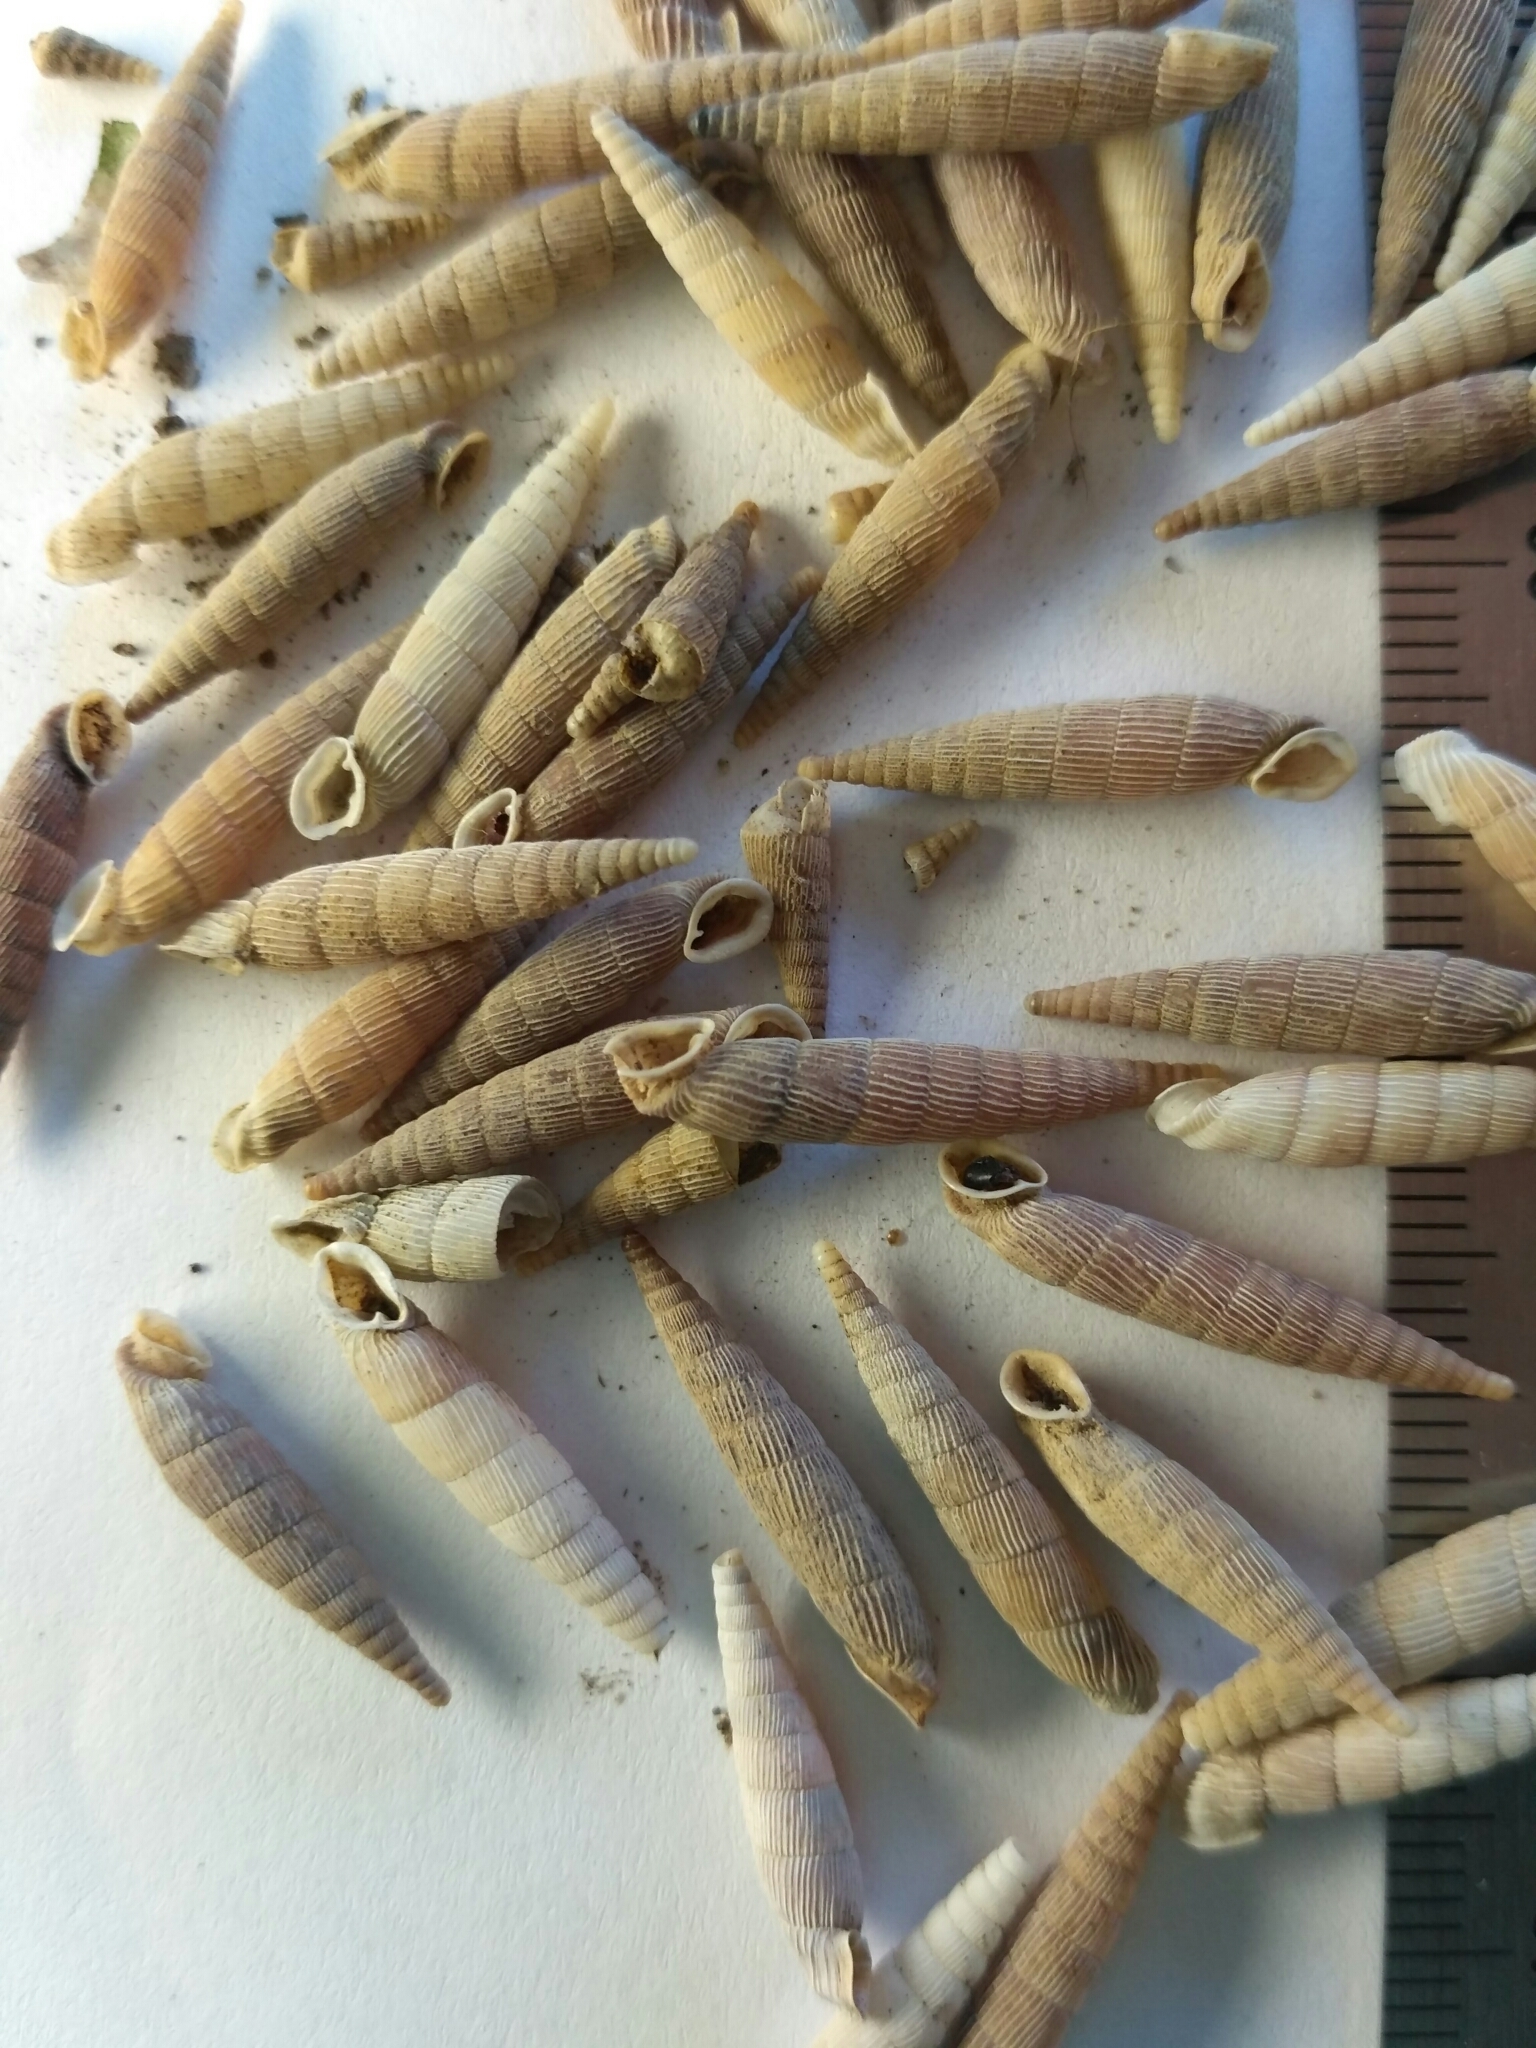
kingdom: Animalia
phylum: Mollusca
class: Gastropoda
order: Stylommatophora
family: Clausiliidae
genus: Mentissa
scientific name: Mentissa gracilicosta
